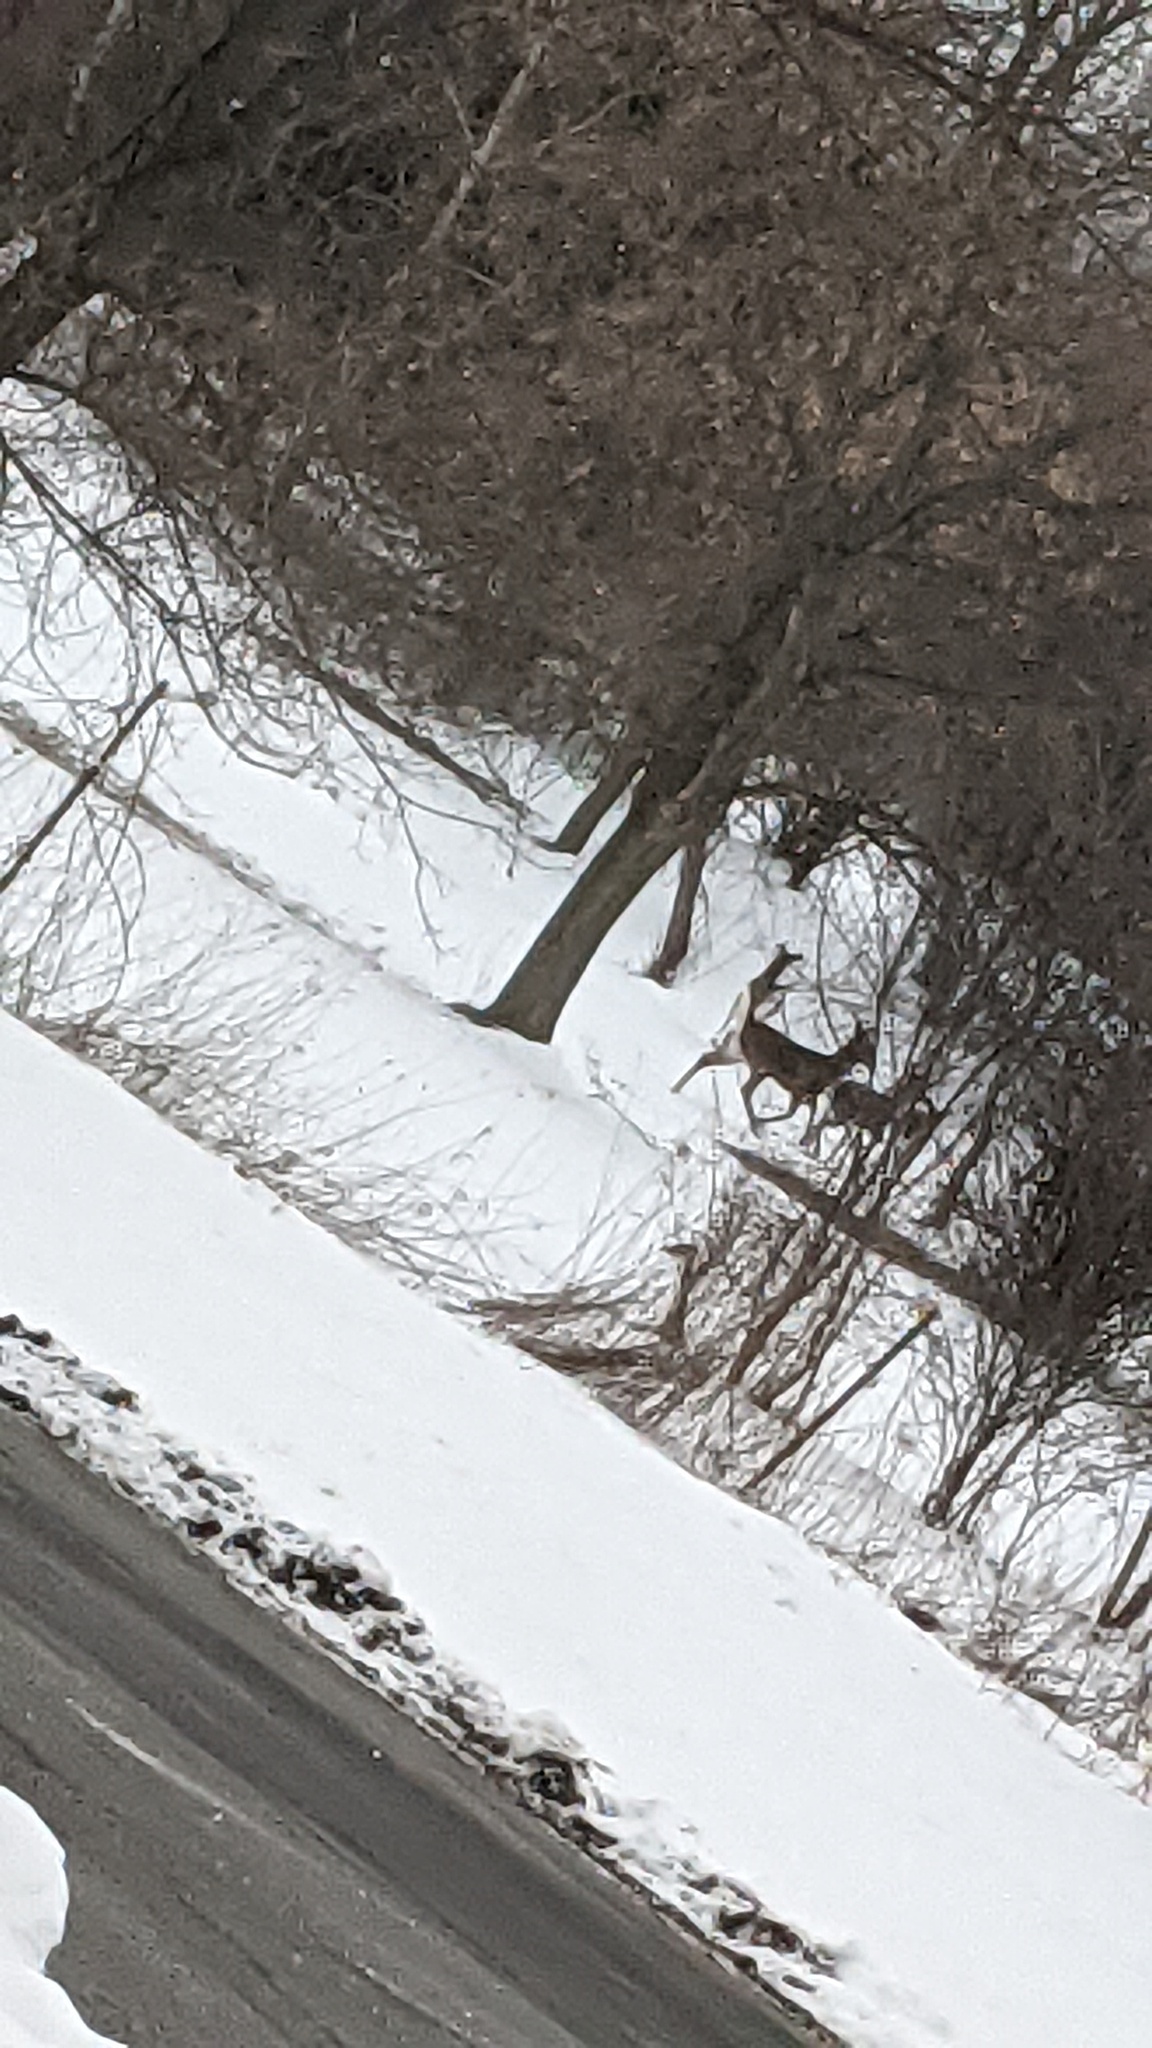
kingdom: Animalia
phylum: Chordata
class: Mammalia
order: Artiodactyla
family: Cervidae
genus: Odocoileus
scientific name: Odocoileus virginianus
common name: White-tailed deer
